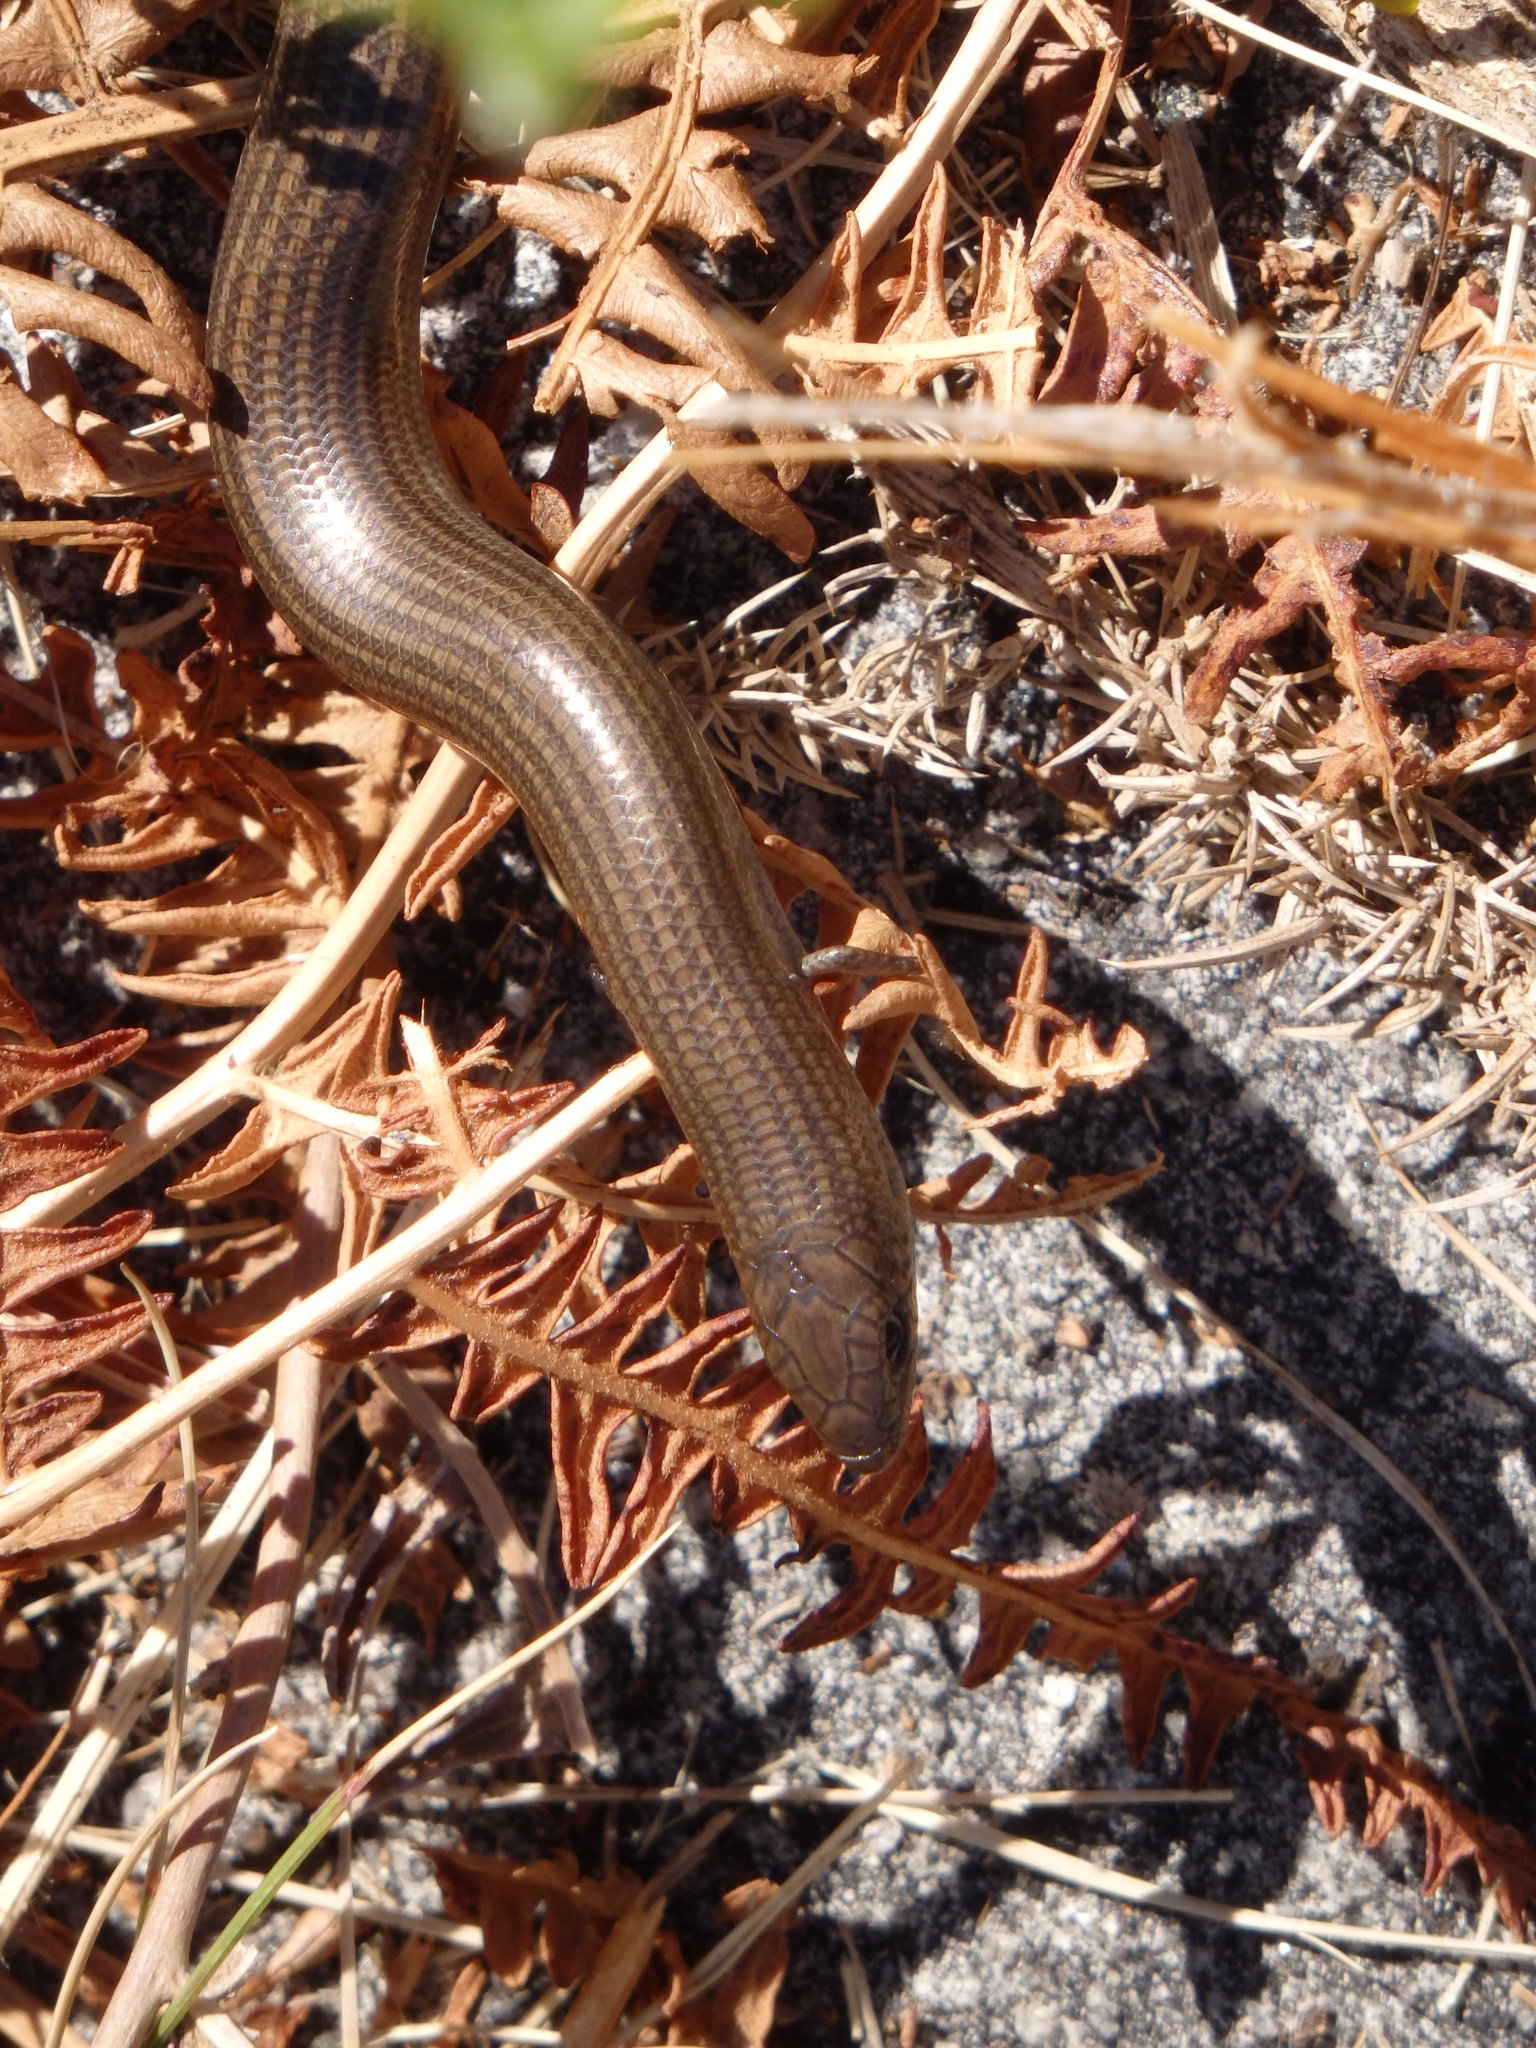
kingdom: Animalia
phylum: Chordata
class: Squamata
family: Scincidae
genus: Chalcides
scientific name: Chalcides striatus
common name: Western (or iberian) three-toed skink
